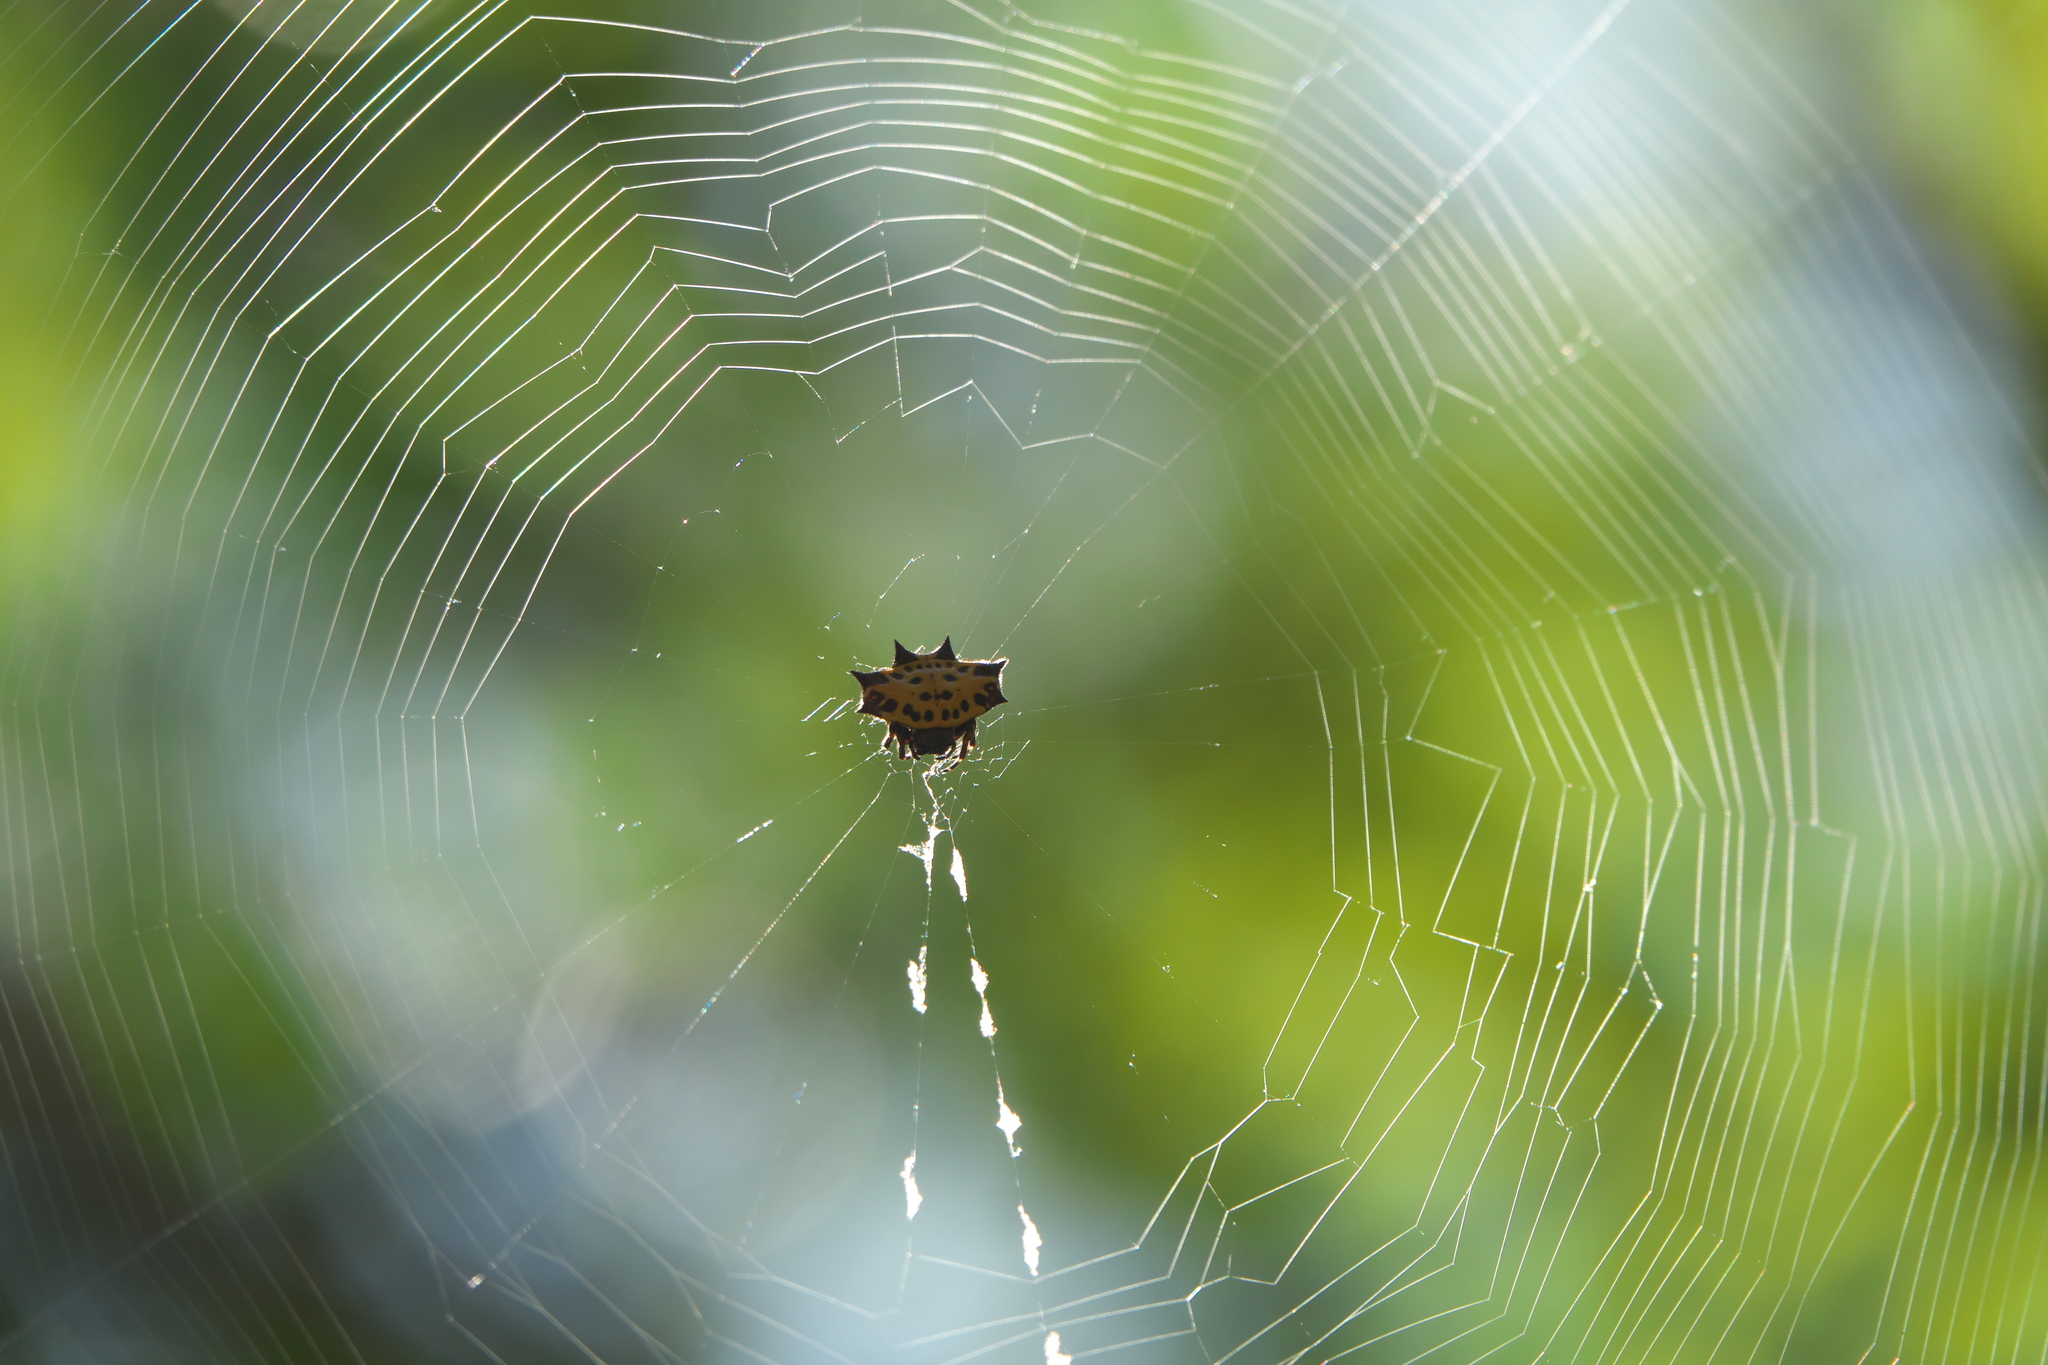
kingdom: Animalia
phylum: Arthropoda
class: Arachnida
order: Araneae
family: Araneidae
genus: Gasteracantha
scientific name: Gasteracantha cancriformis
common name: Orb weavers
